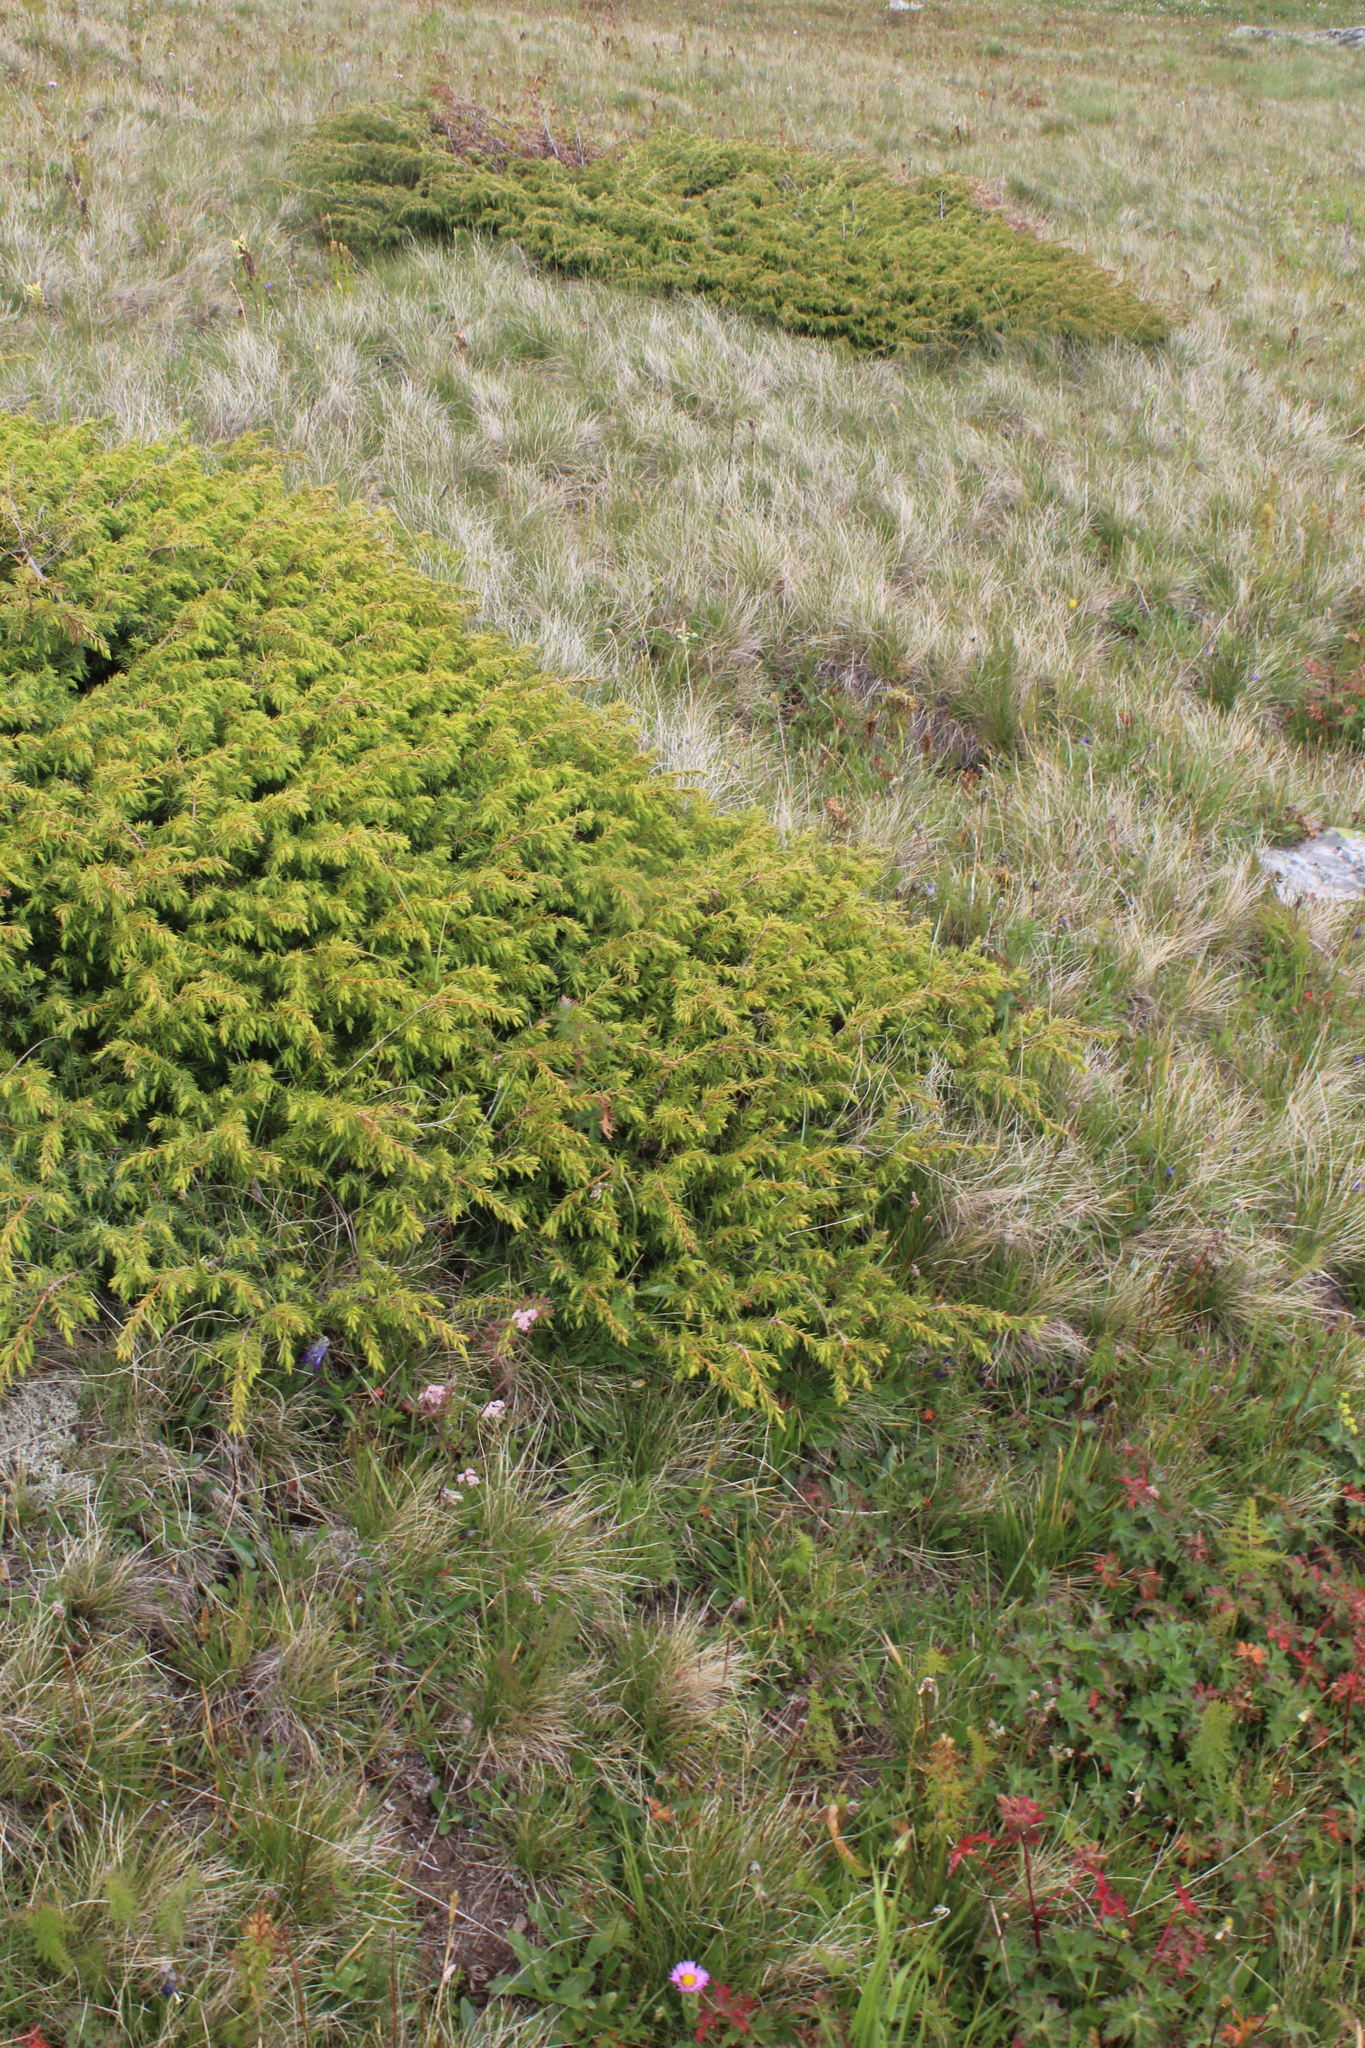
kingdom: Plantae
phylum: Tracheophyta
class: Pinopsida
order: Pinales
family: Cupressaceae
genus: Juniperus
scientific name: Juniperus communis
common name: Common juniper
